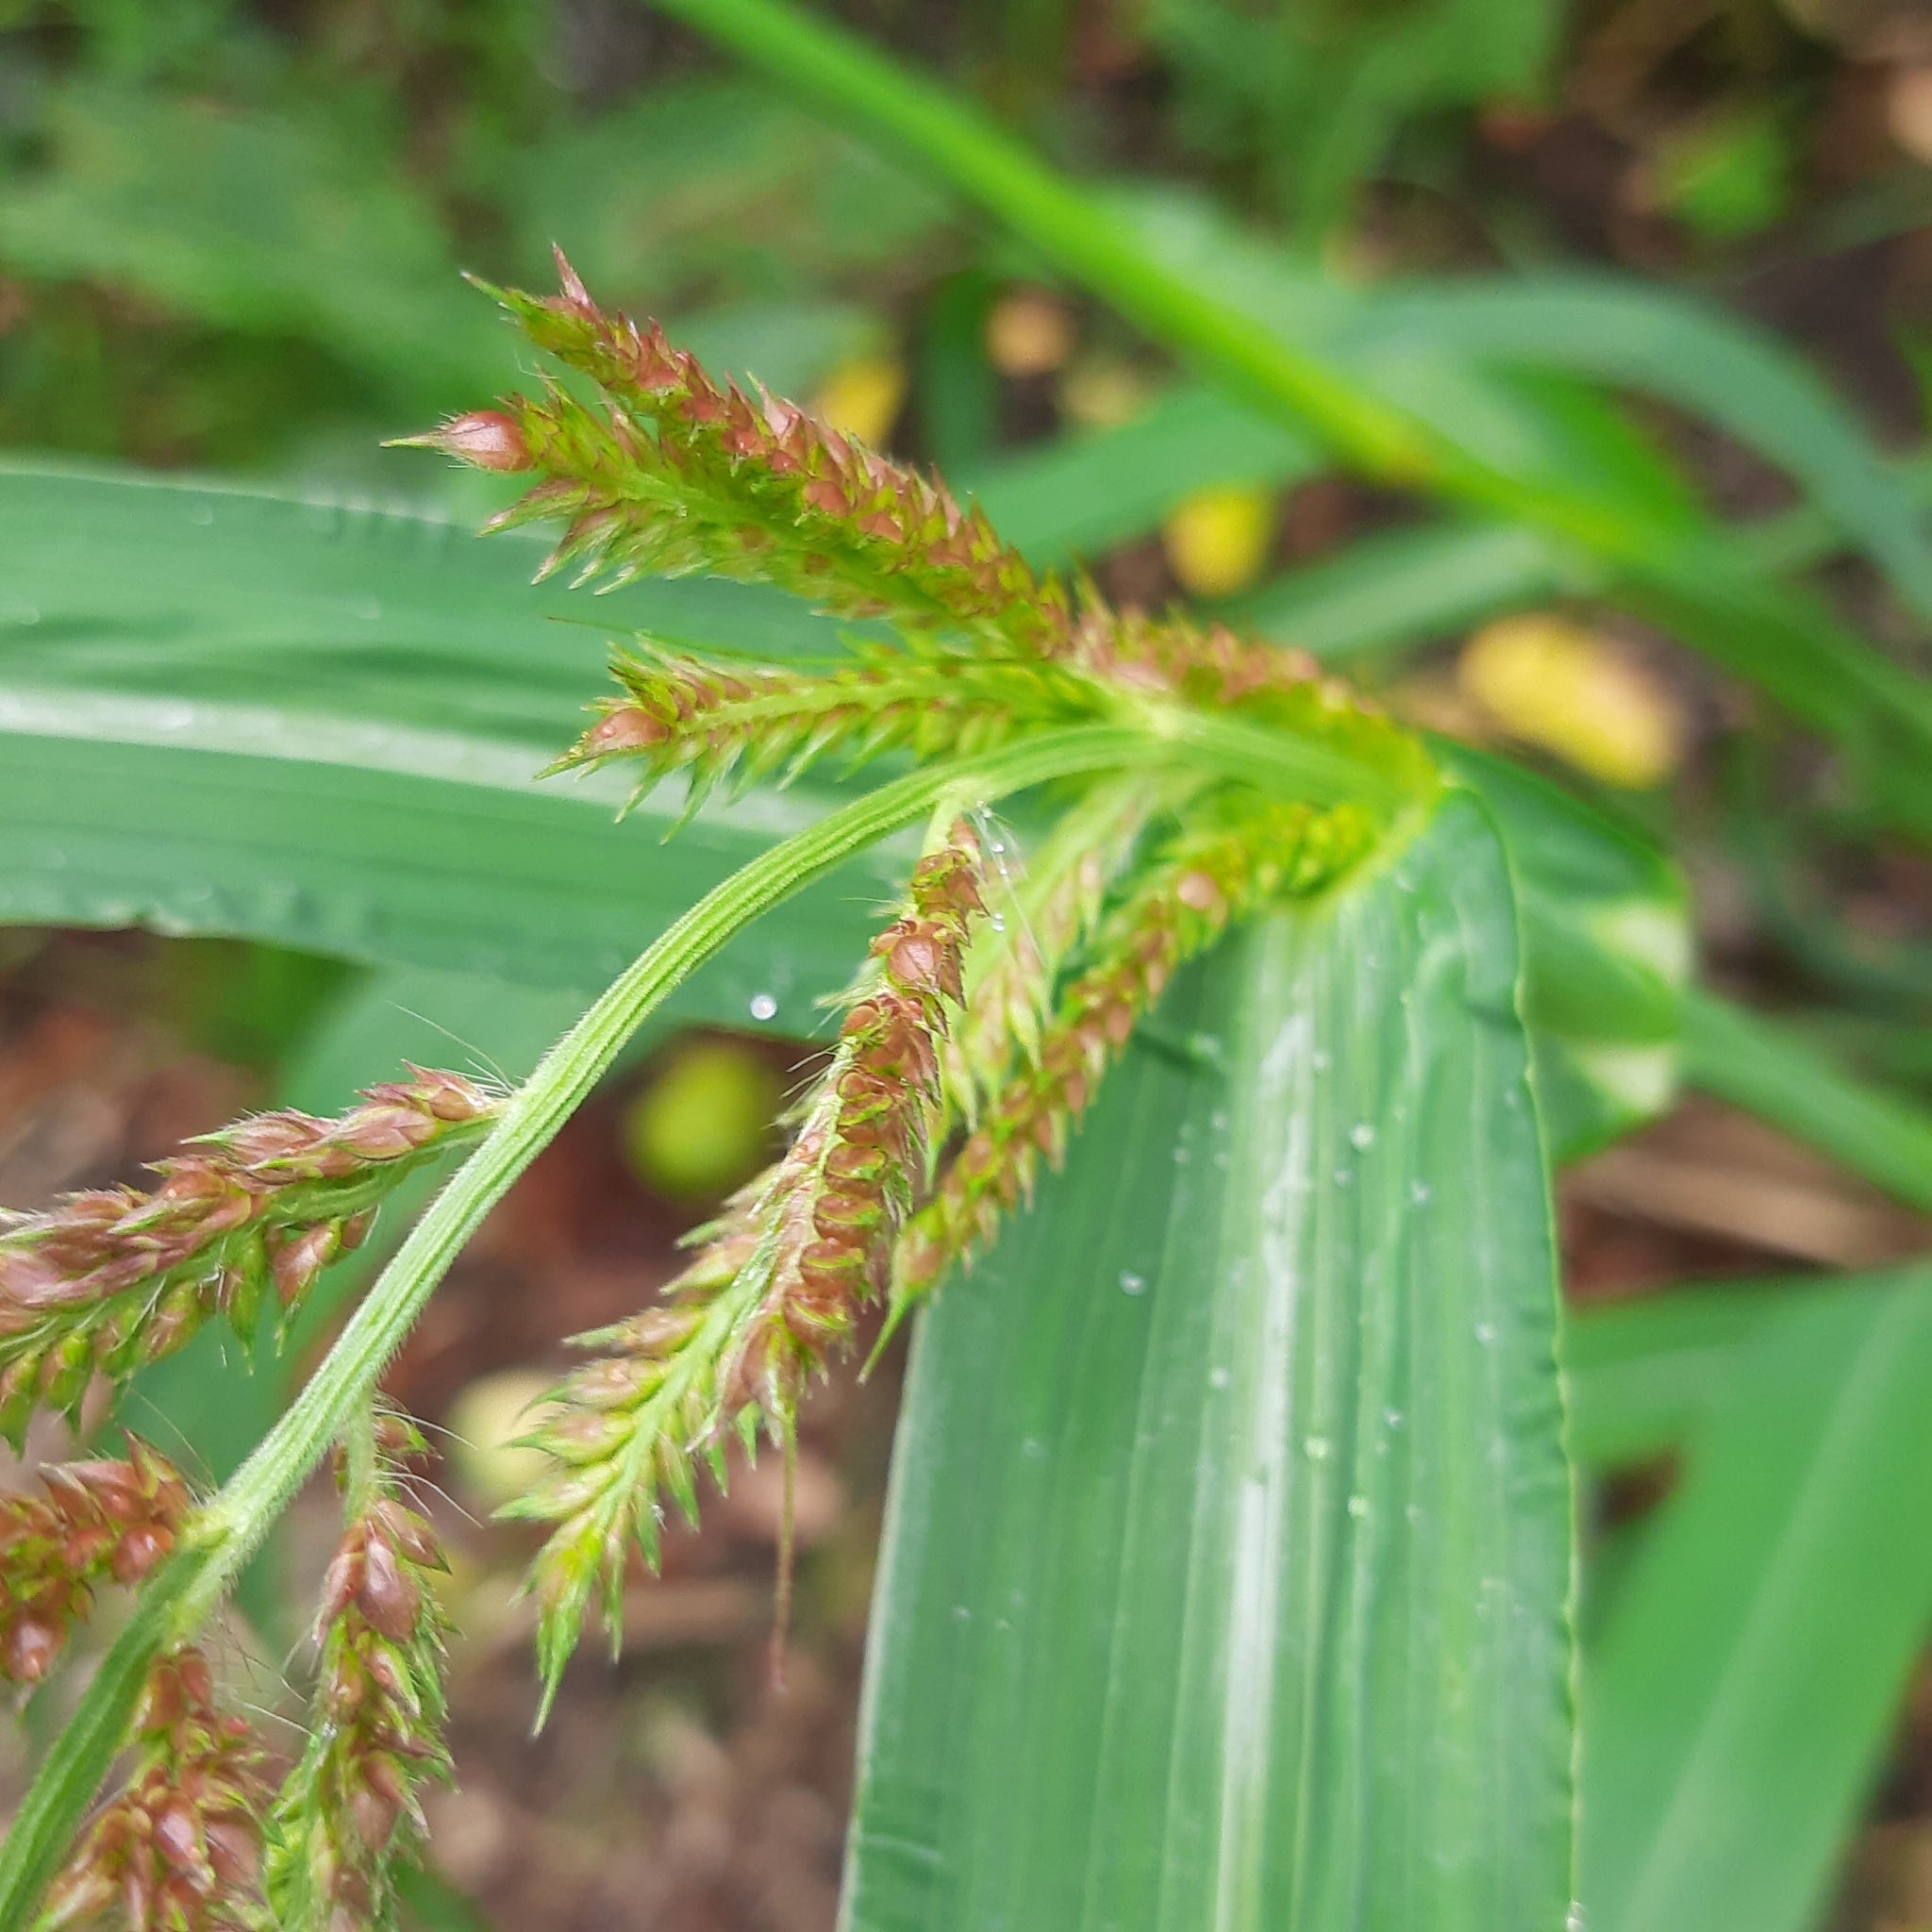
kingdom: Plantae
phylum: Tracheophyta
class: Liliopsida
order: Poales
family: Poaceae
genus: Echinochloa
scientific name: Echinochloa crus-galli
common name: Cockspur
